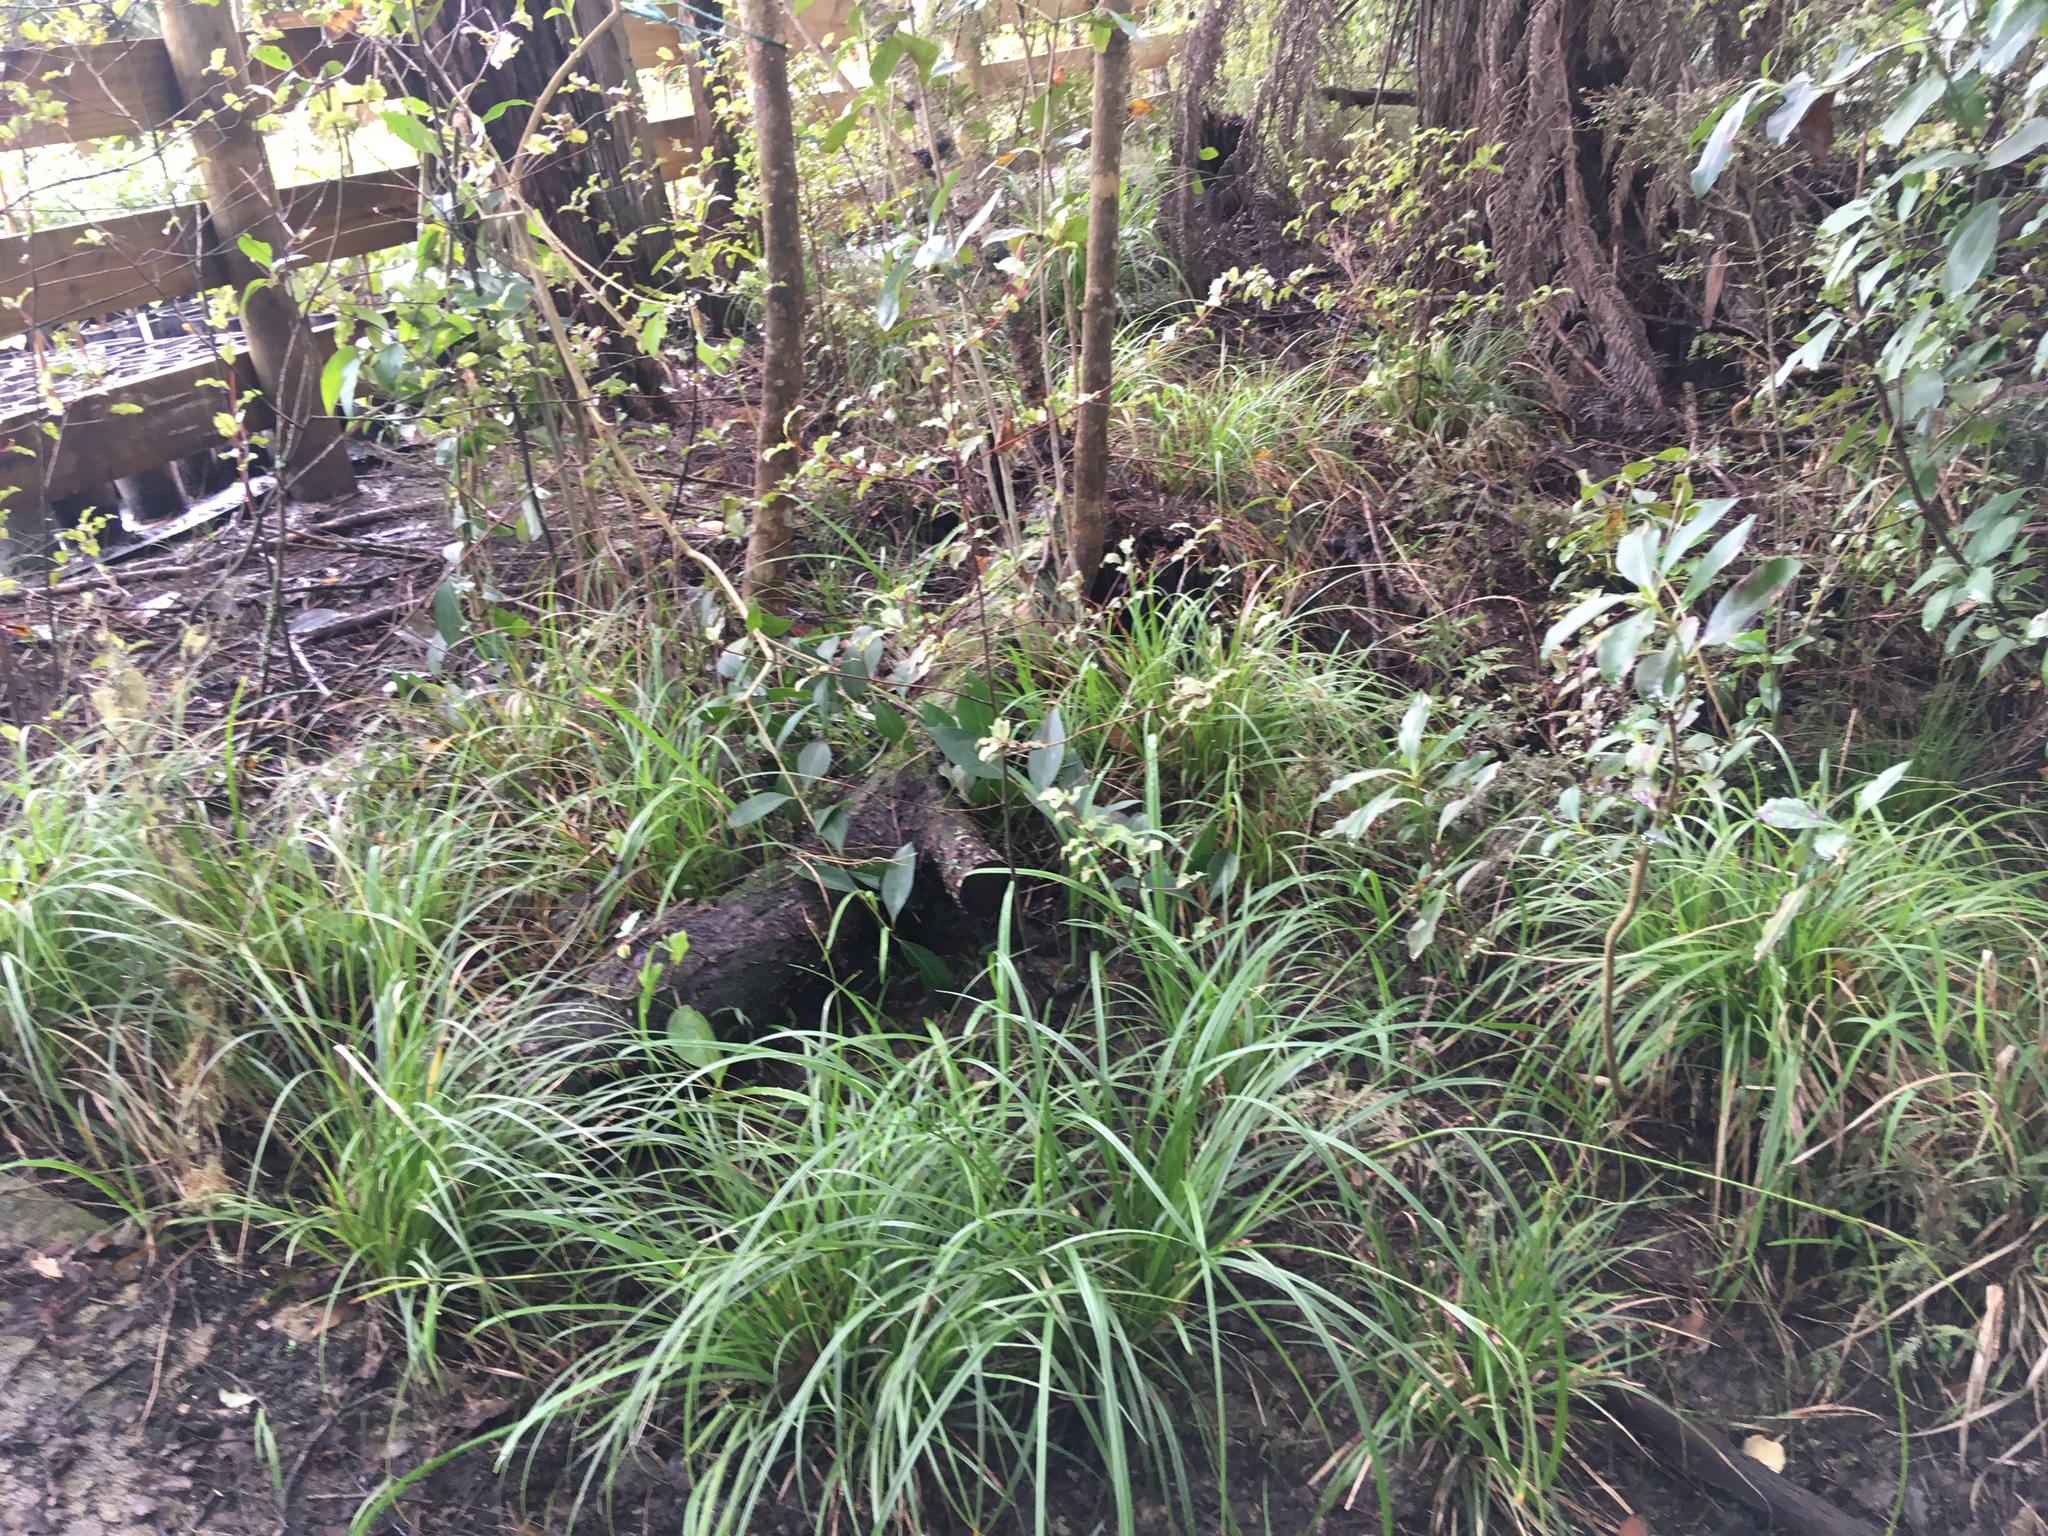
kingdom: Plantae
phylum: Tracheophyta
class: Pinopsida
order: Pinales
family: Podocarpaceae
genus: Dacrycarpus
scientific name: Dacrycarpus dacrydioides
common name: White pine
